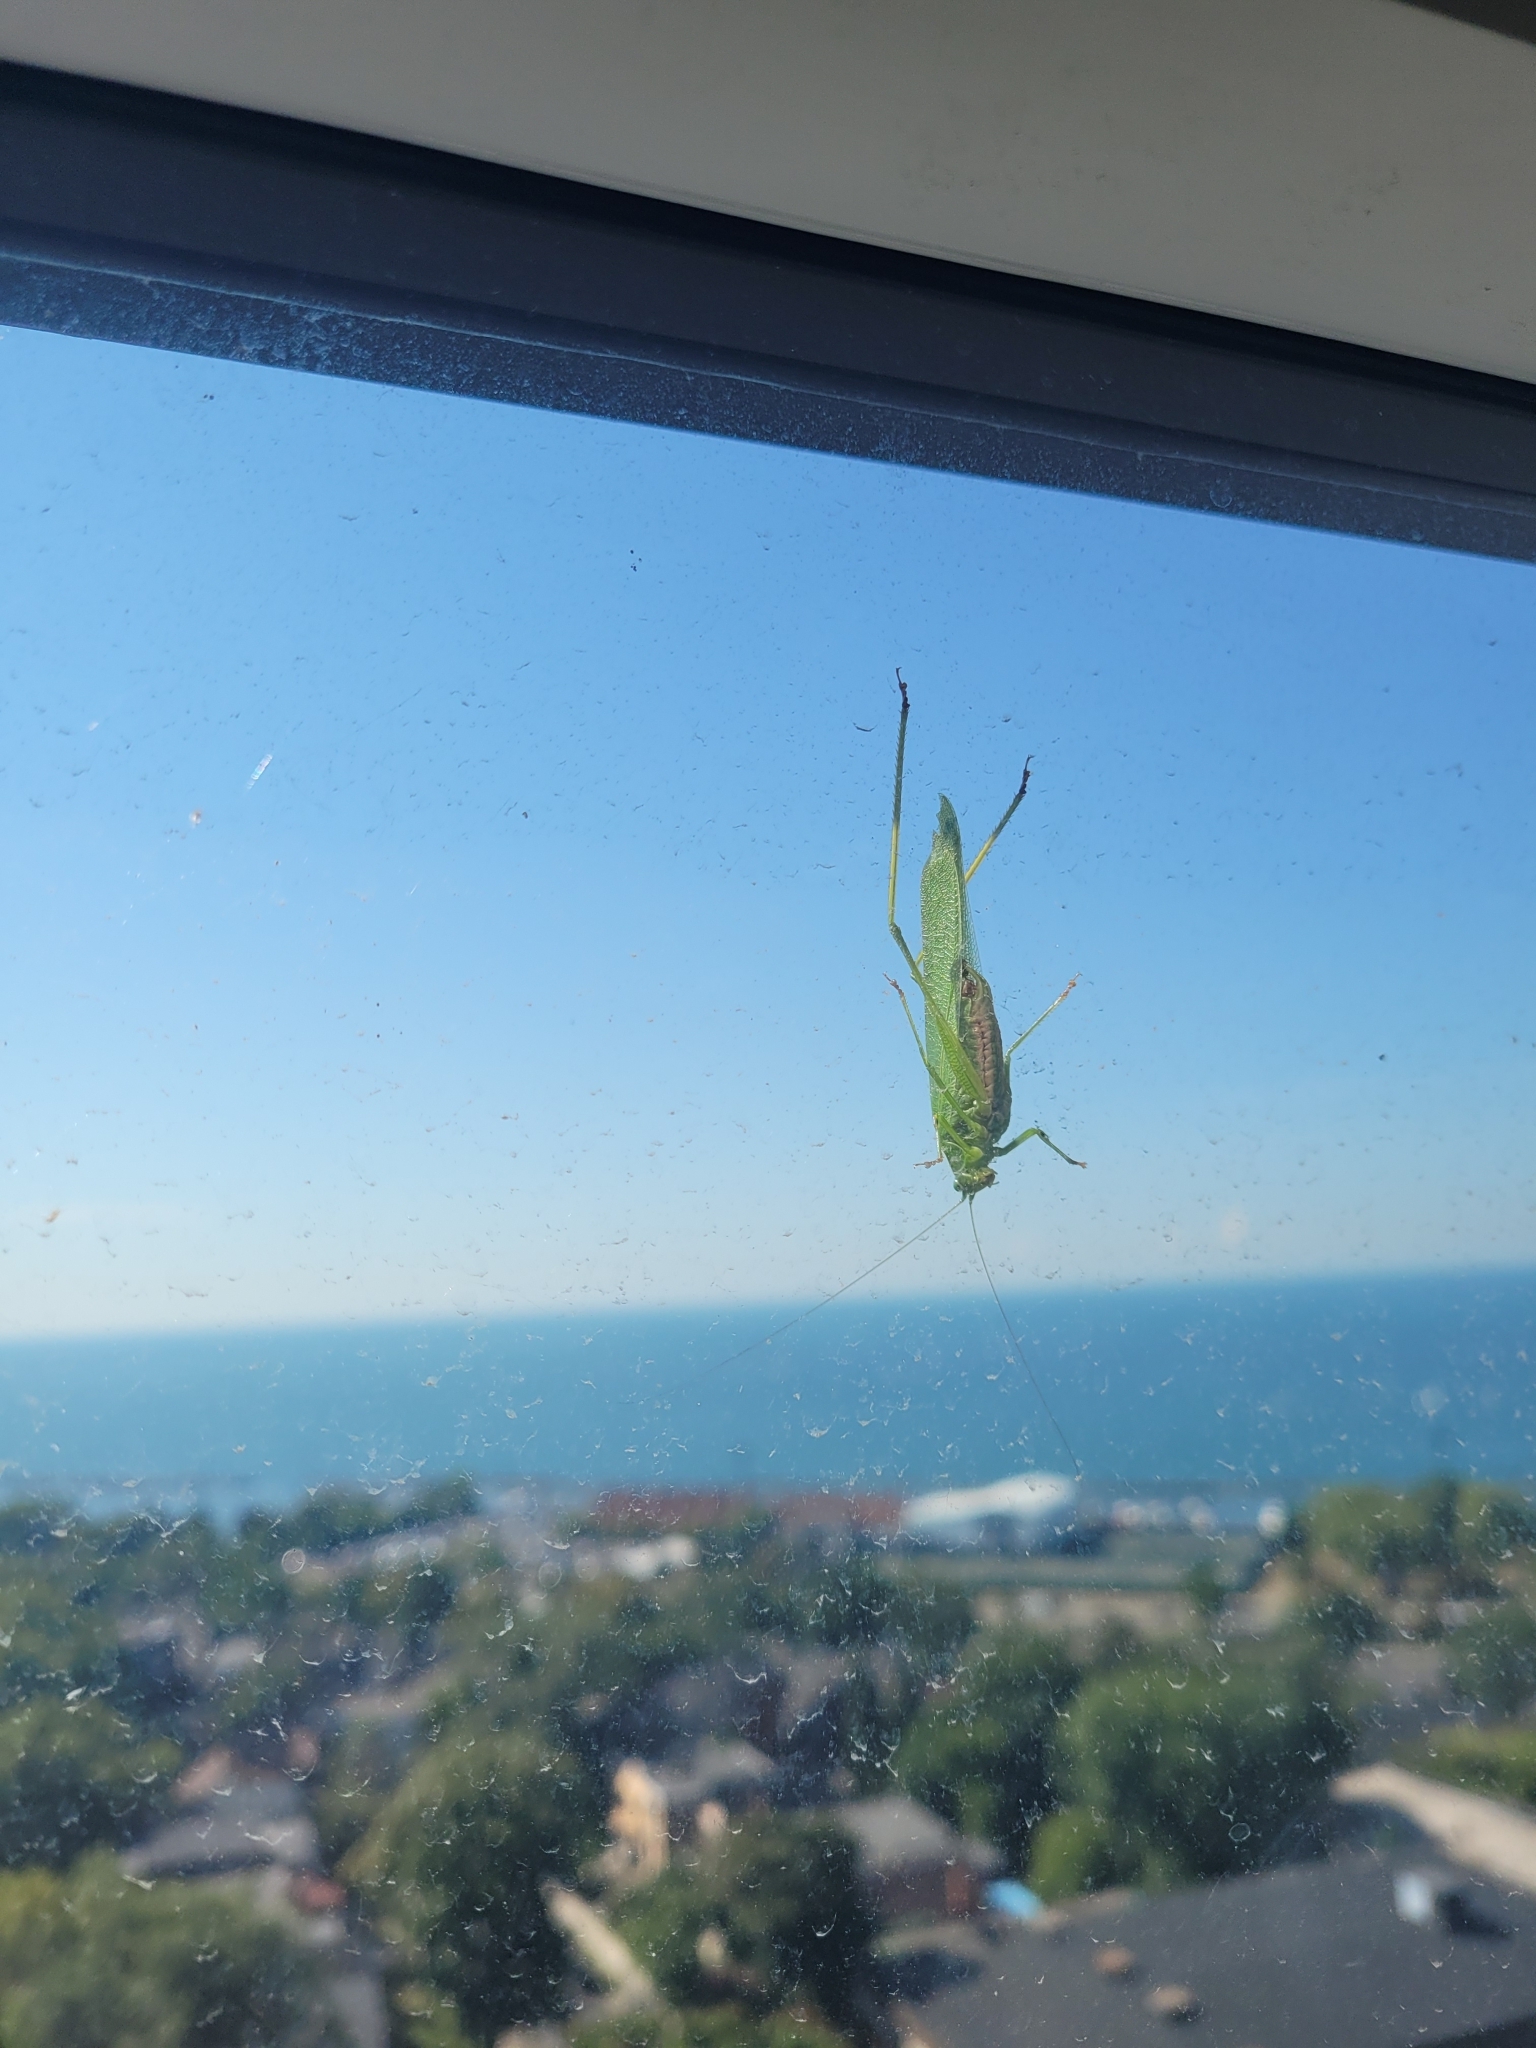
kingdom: Animalia
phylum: Arthropoda
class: Insecta
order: Orthoptera
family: Tettigoniidae
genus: Scudderia
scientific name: Scudderia furcata
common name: Fork-tailed bush katydid
